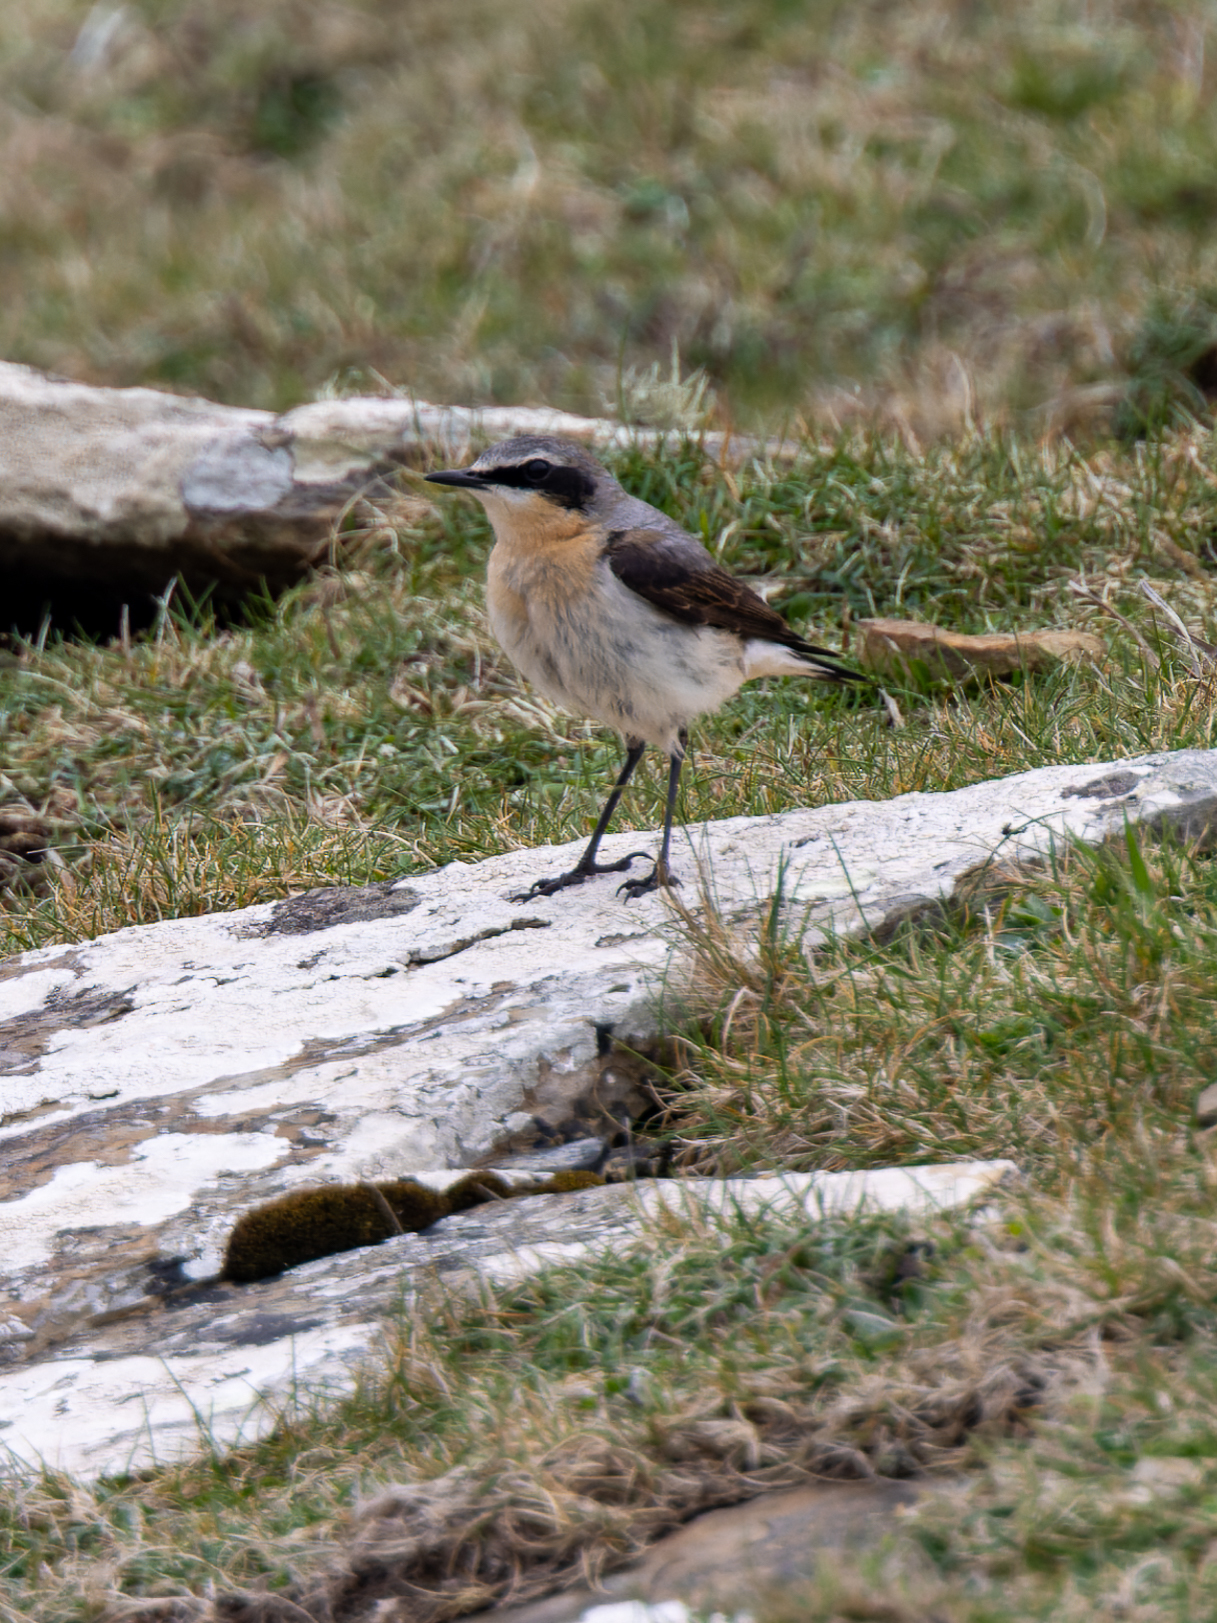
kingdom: Animalia
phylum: Chordata
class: Aves
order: Passeriformes
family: Muscicapidae
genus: Oenanthe
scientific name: Oenanthe oenanthe
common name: Northern wheatear
